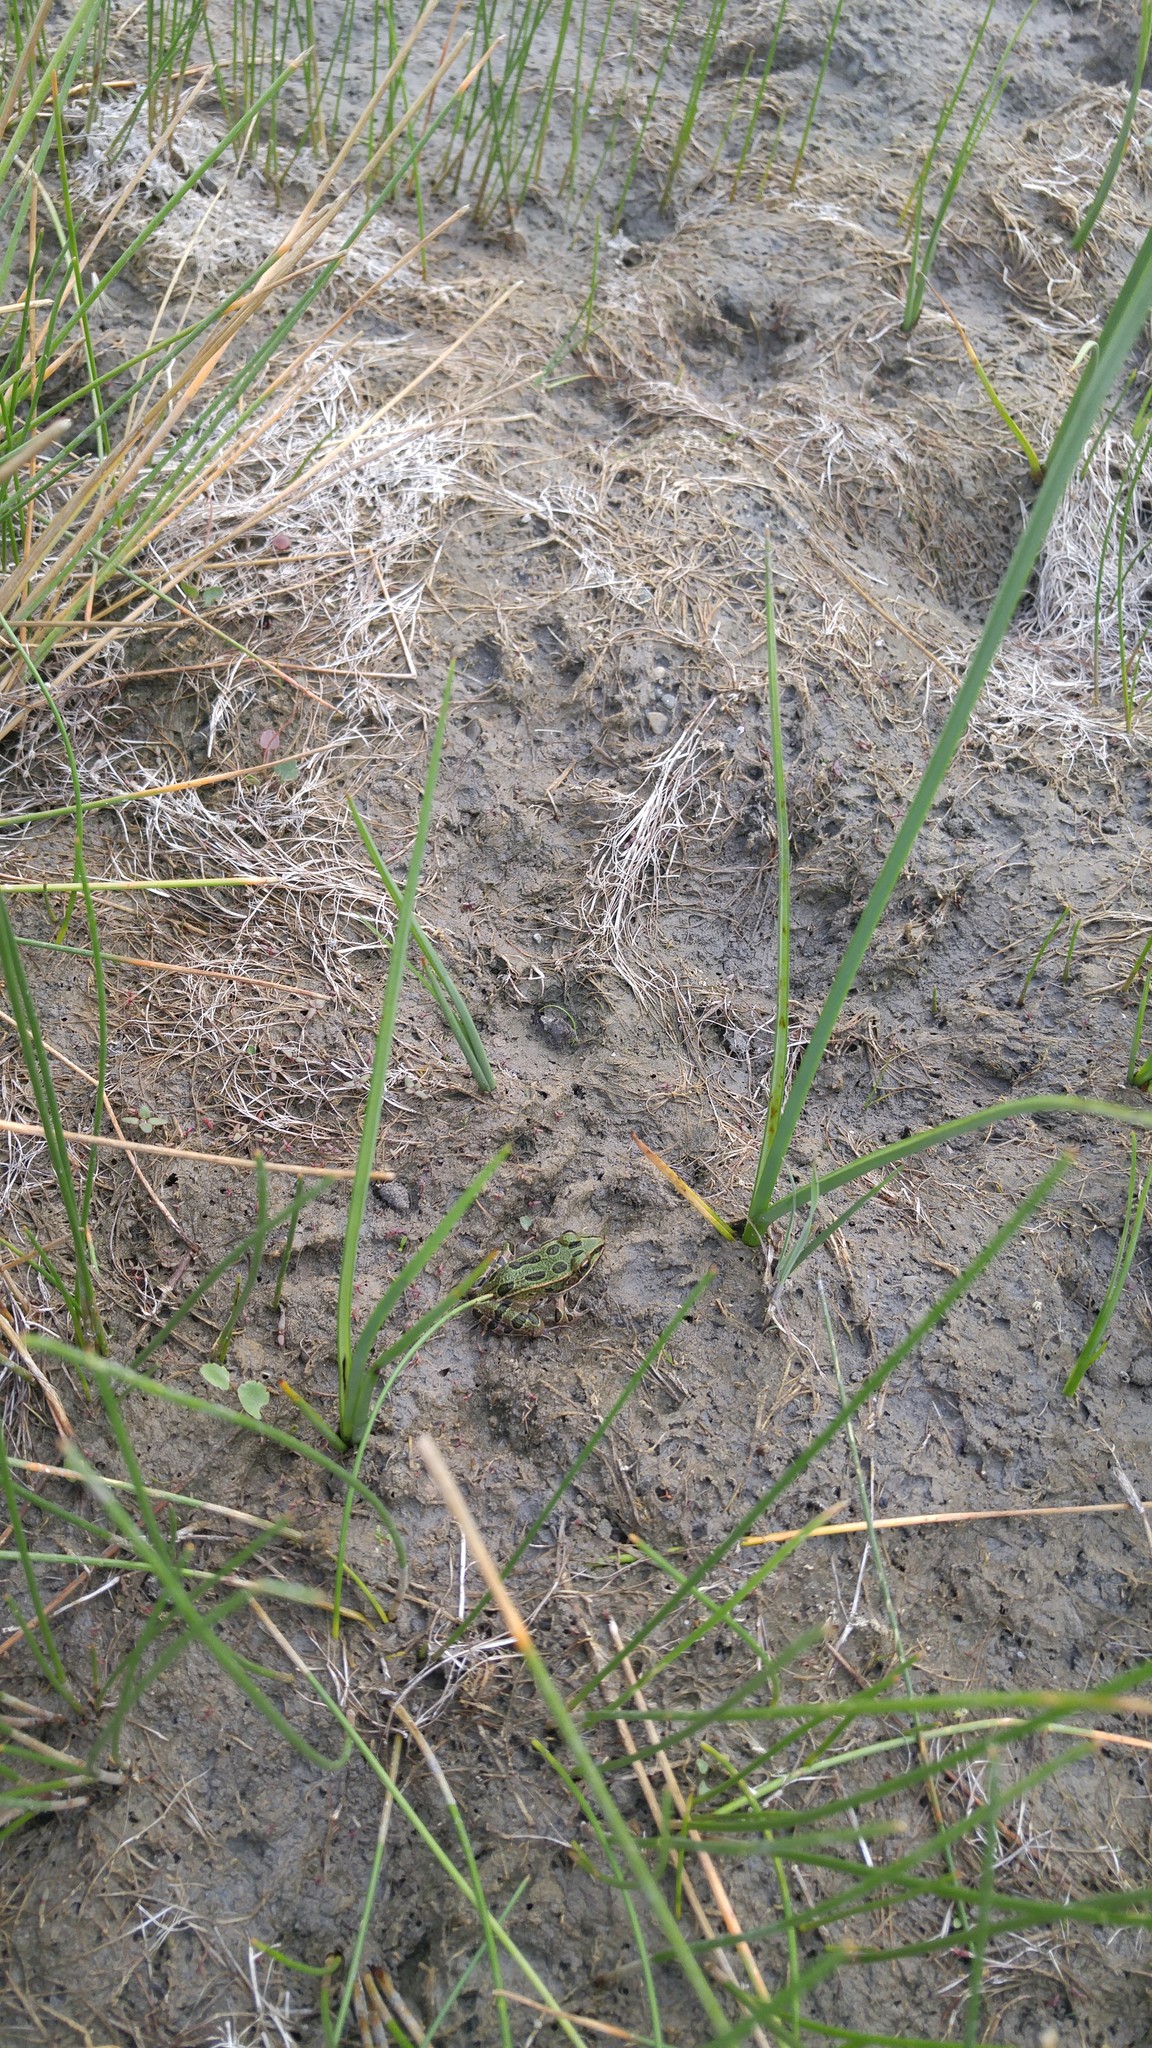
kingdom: Animalia
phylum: Chordata
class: Amphibia
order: Anura
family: Ranidae
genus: Lithobates
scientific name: Lithobates pipiens
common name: Northern leopard frog
